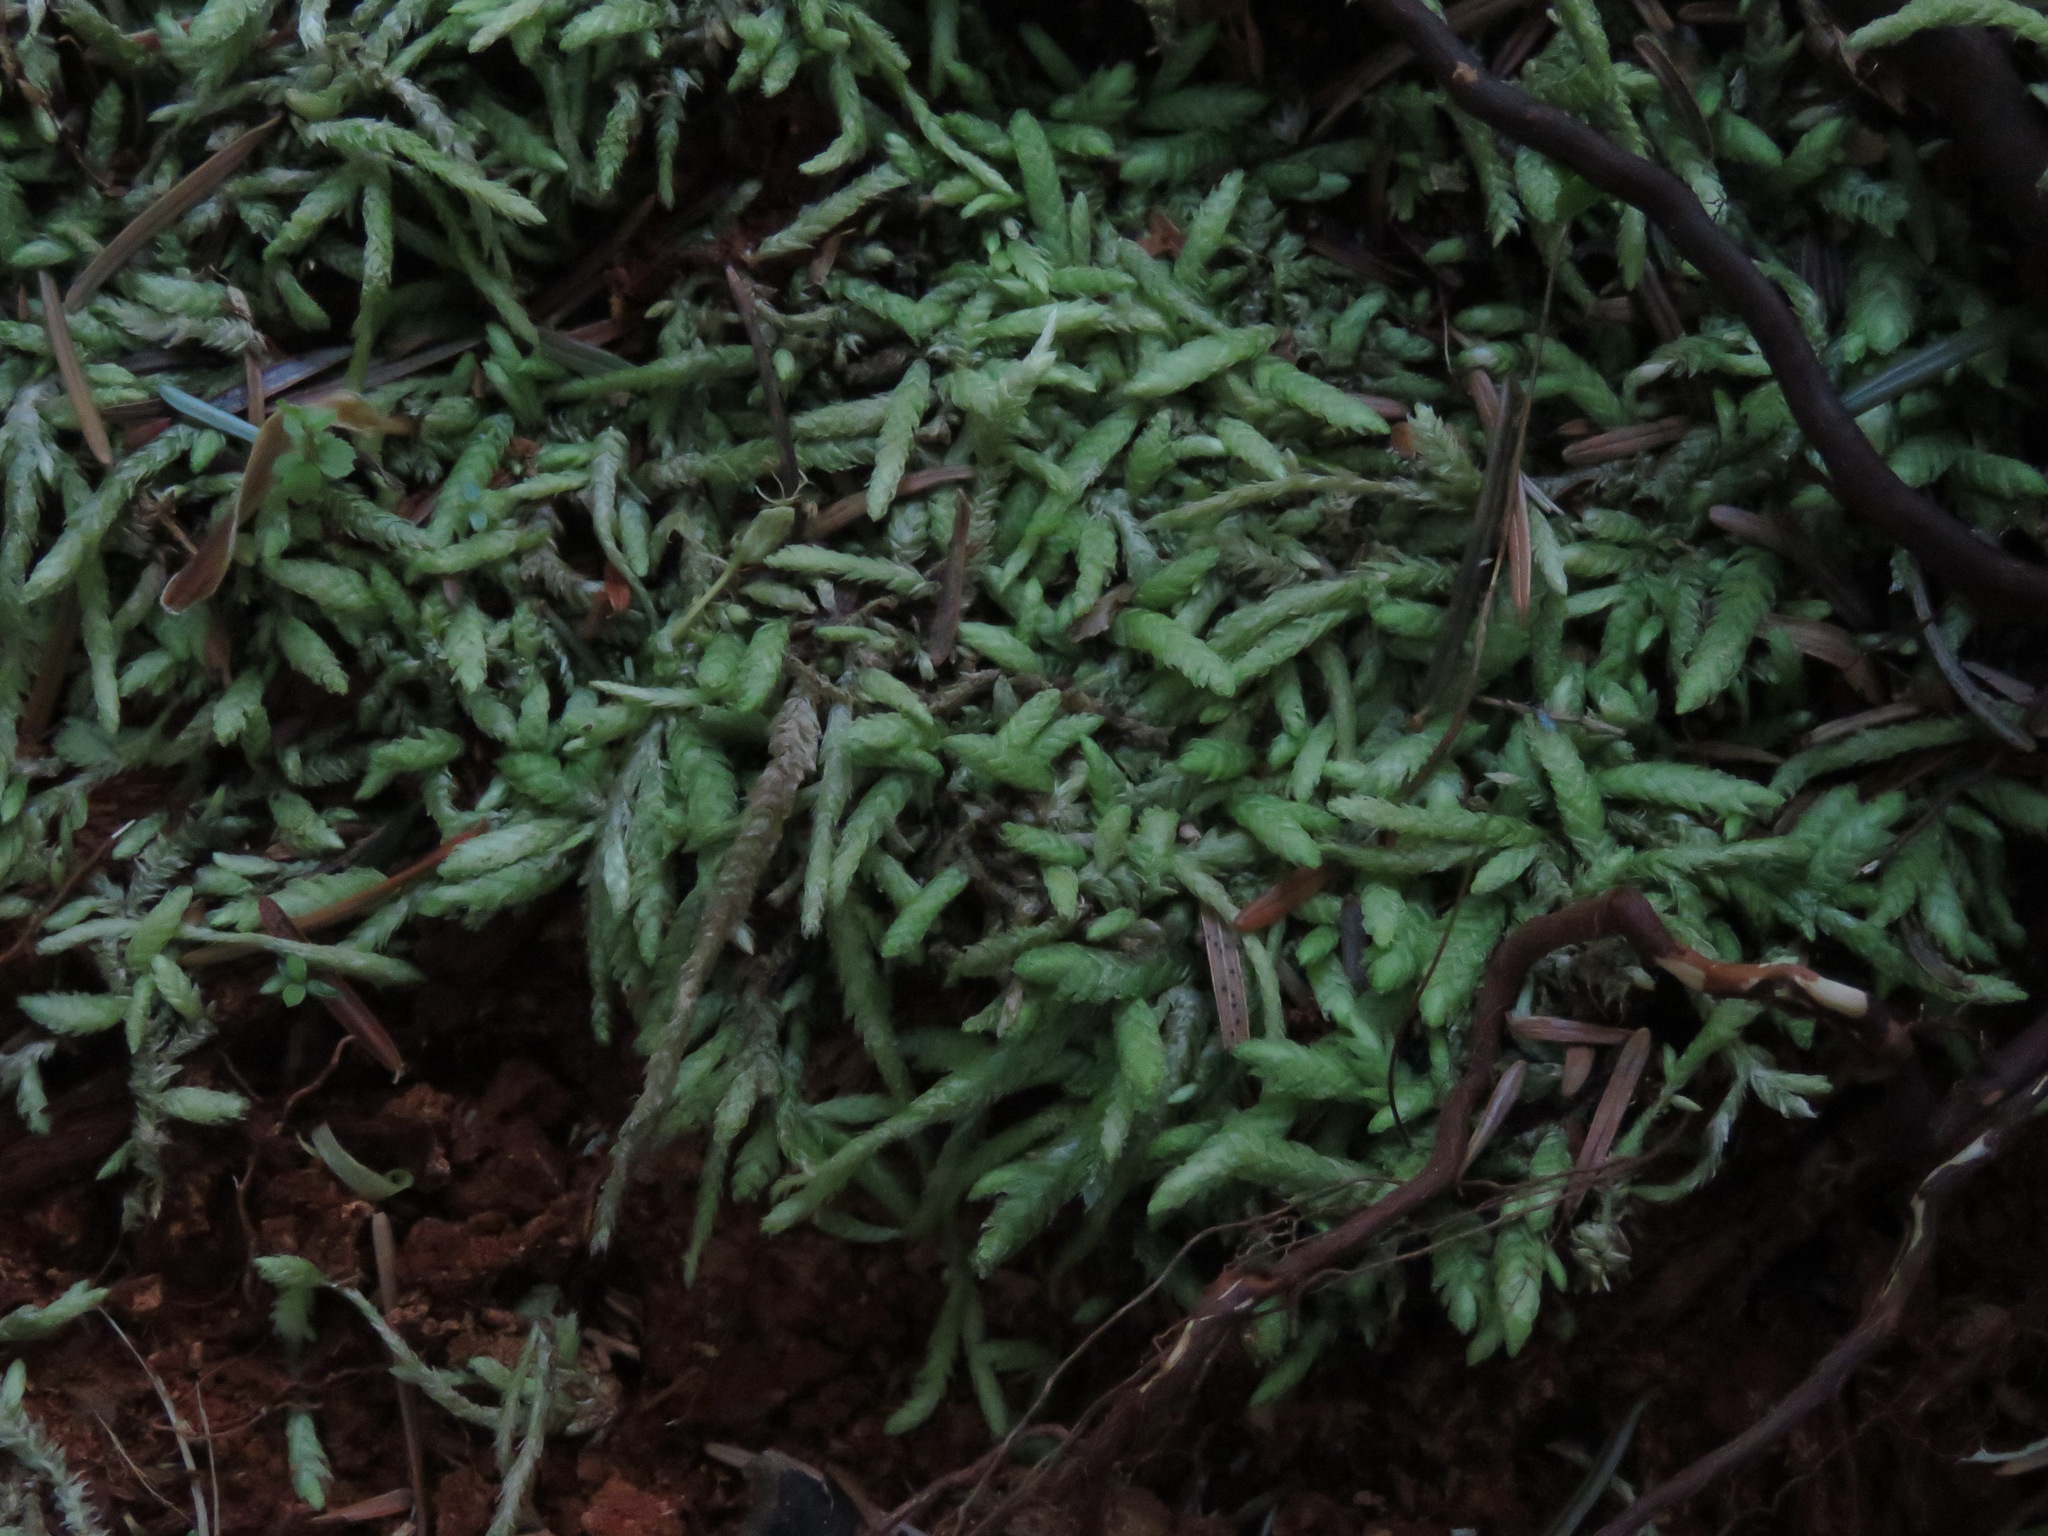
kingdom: Plantae
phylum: Bryophyta
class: Bryopsida
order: Hypnales
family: Plagiotheciaceae
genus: Plagiothecium
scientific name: Plagiothecium undulatum
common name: Waved silk-moss
